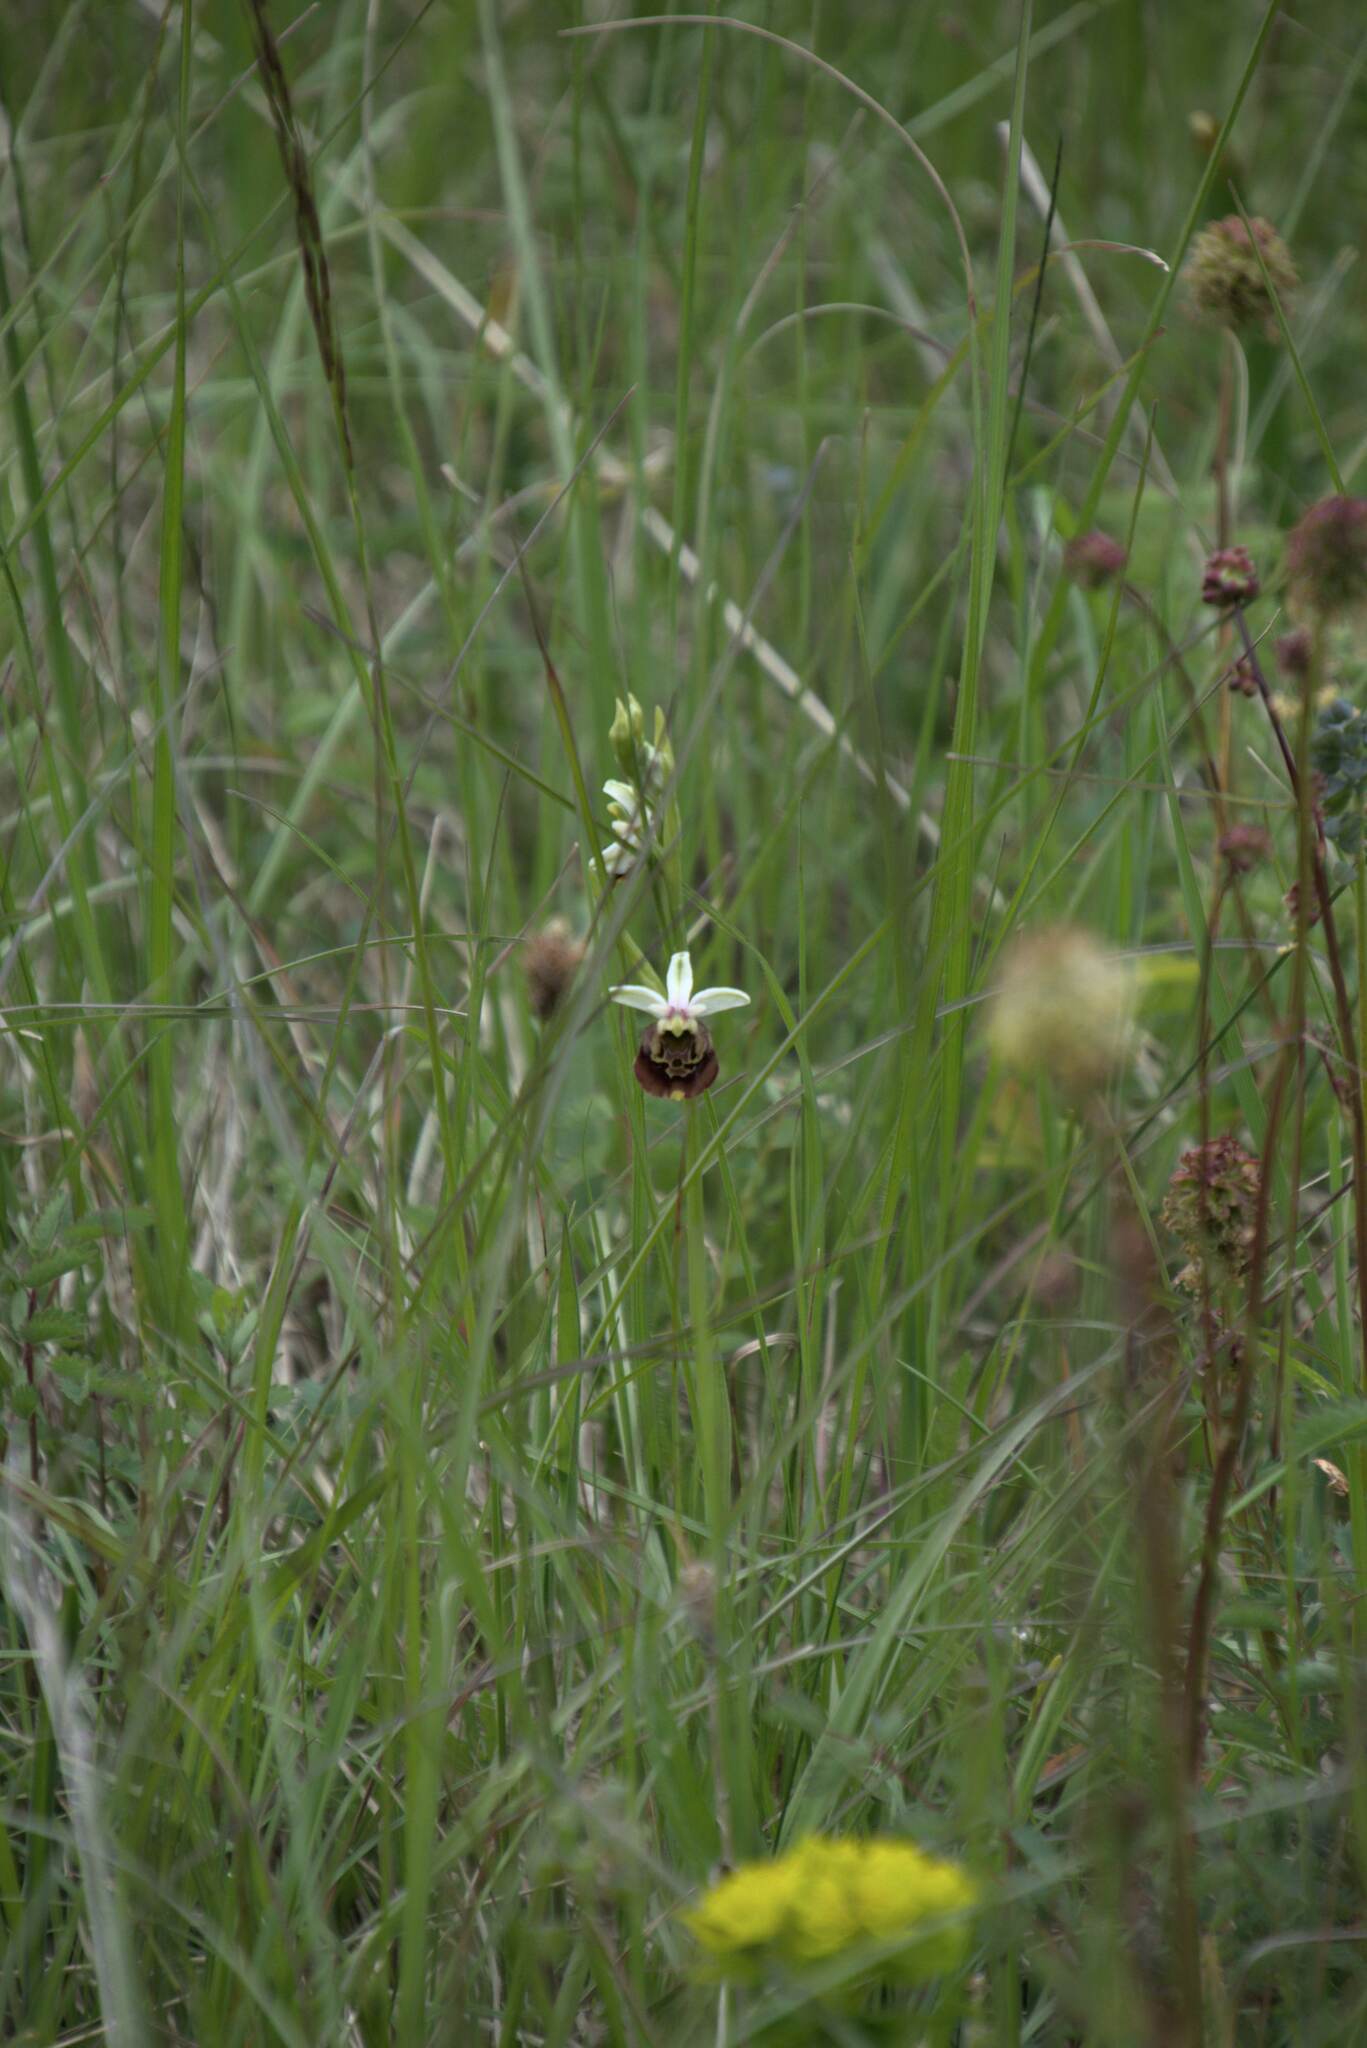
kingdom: Plantae
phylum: Tracheophyta
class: Liliopsida
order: Asparagales
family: Orchidaceae
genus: Ophrys
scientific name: Ophrys holosericea
